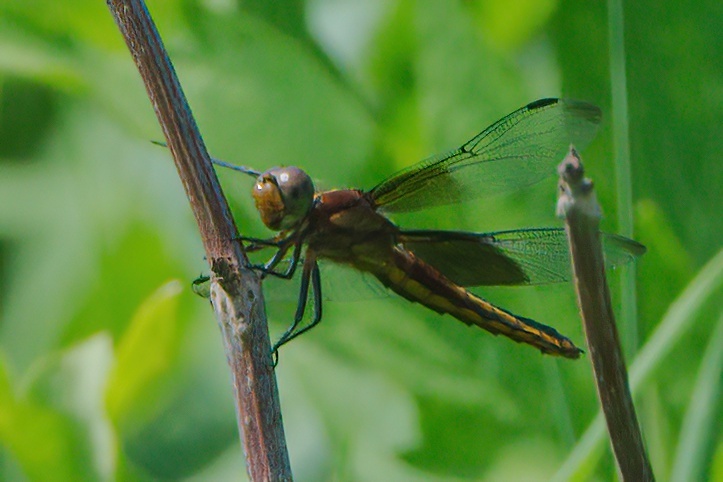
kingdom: Animalia
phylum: Arthropoda
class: Insecta
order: Odonata
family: Libellulidae
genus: Libellula
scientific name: Libellula luctuosa
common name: Widow skimmer
